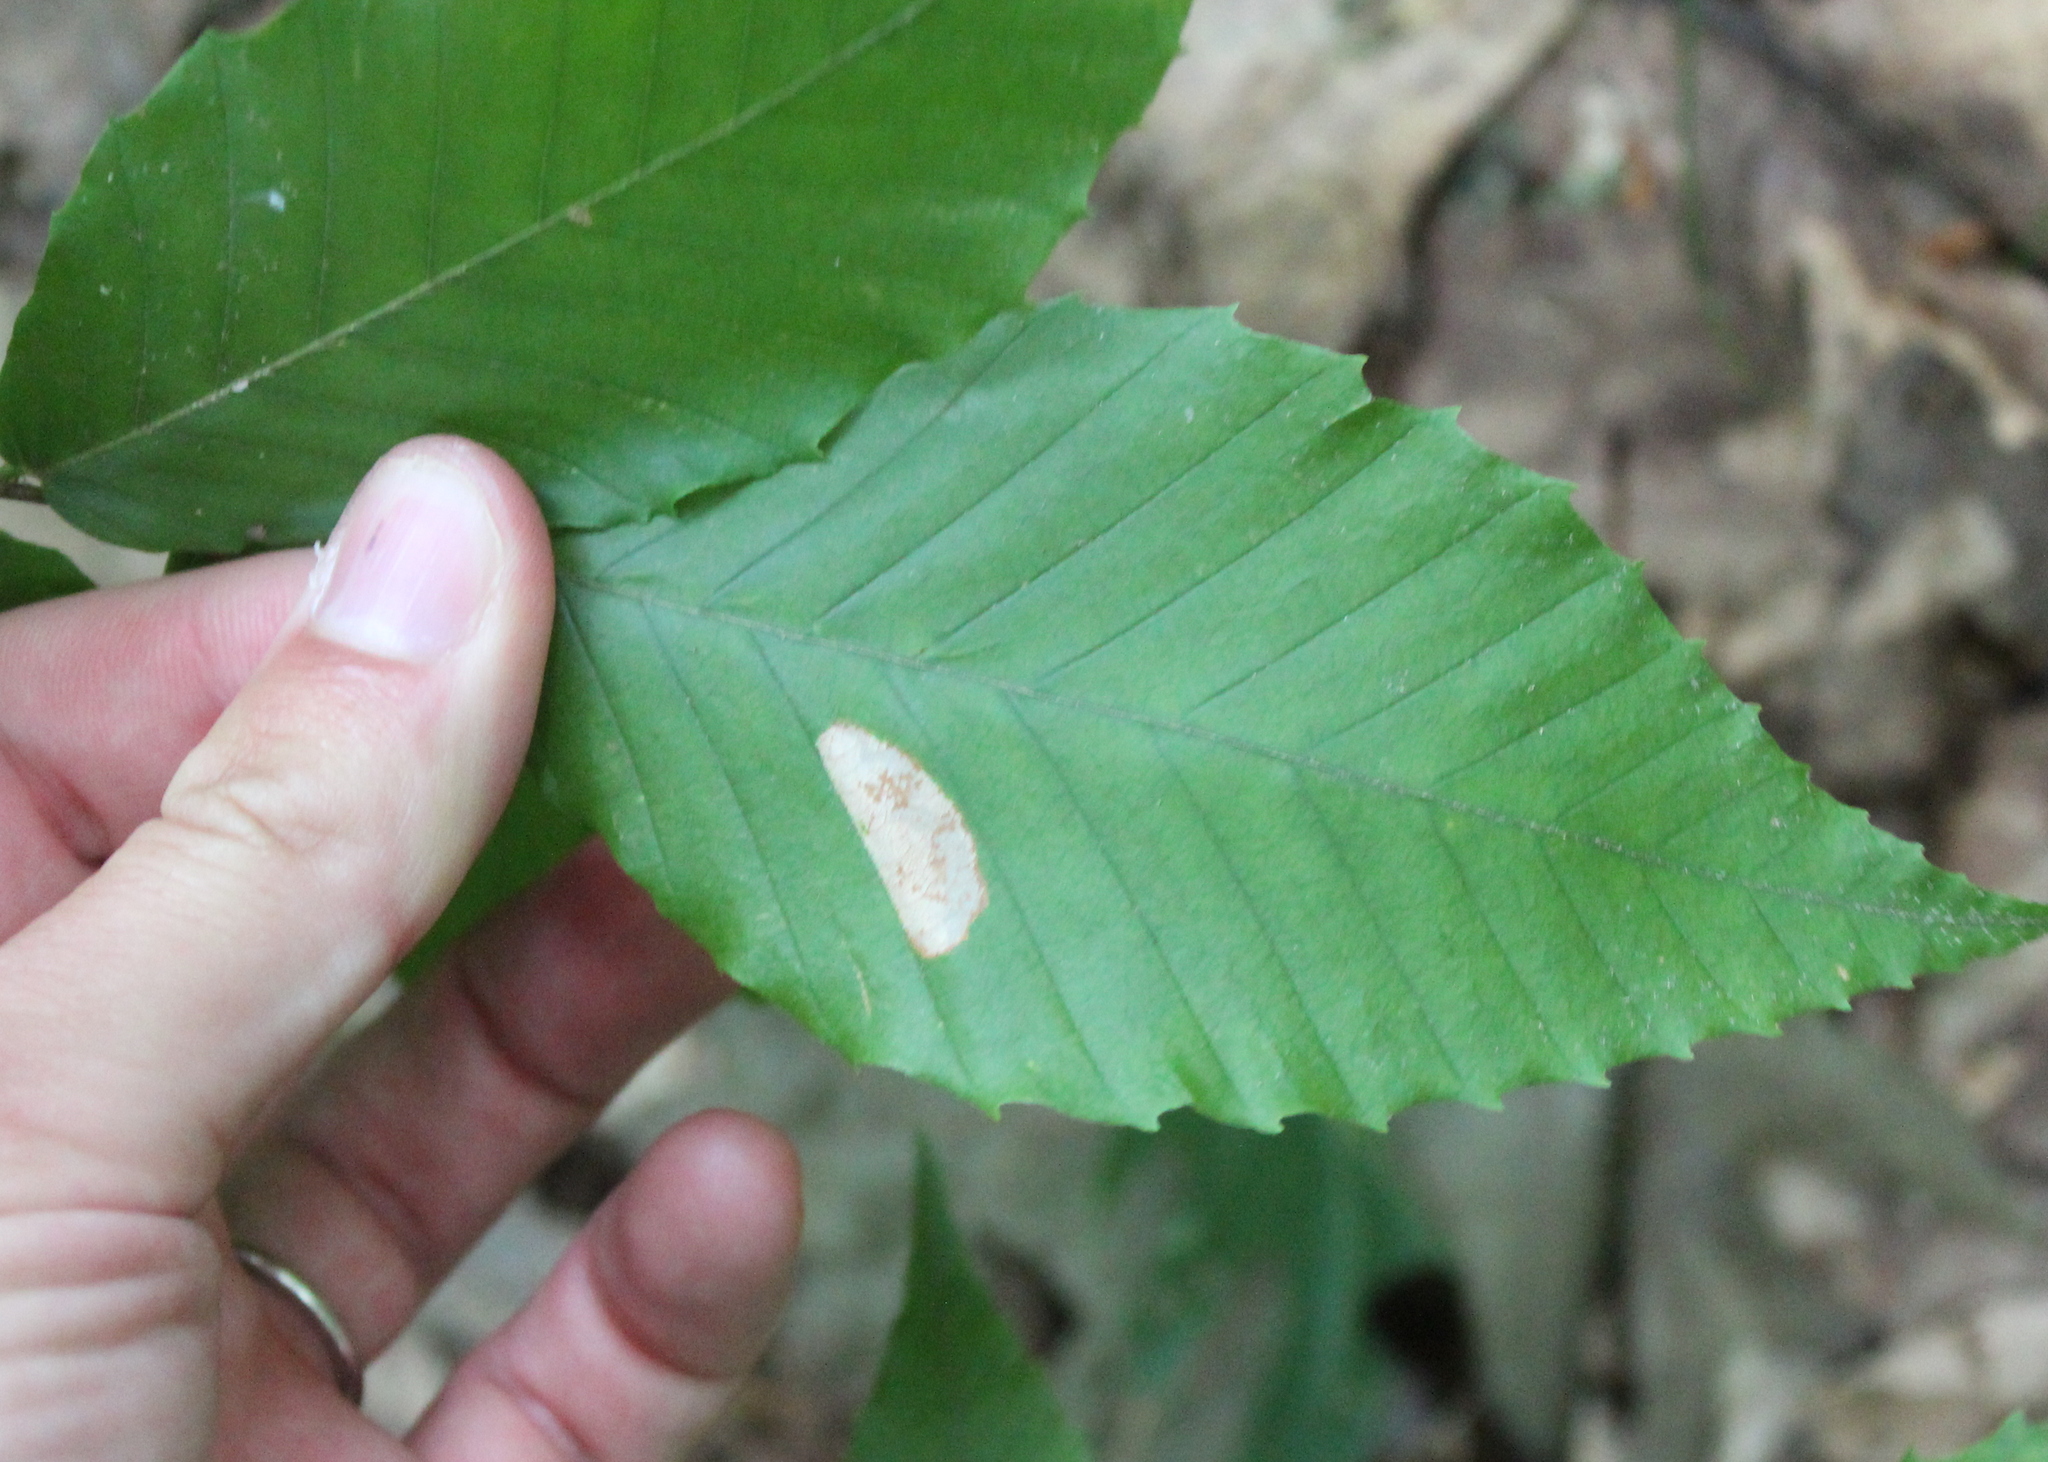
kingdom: Plantae
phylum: Tracheophyta
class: Magnoliopsida
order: Fagales
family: Fagaceae
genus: Fagus
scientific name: Fagus grandifolia
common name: American beech
